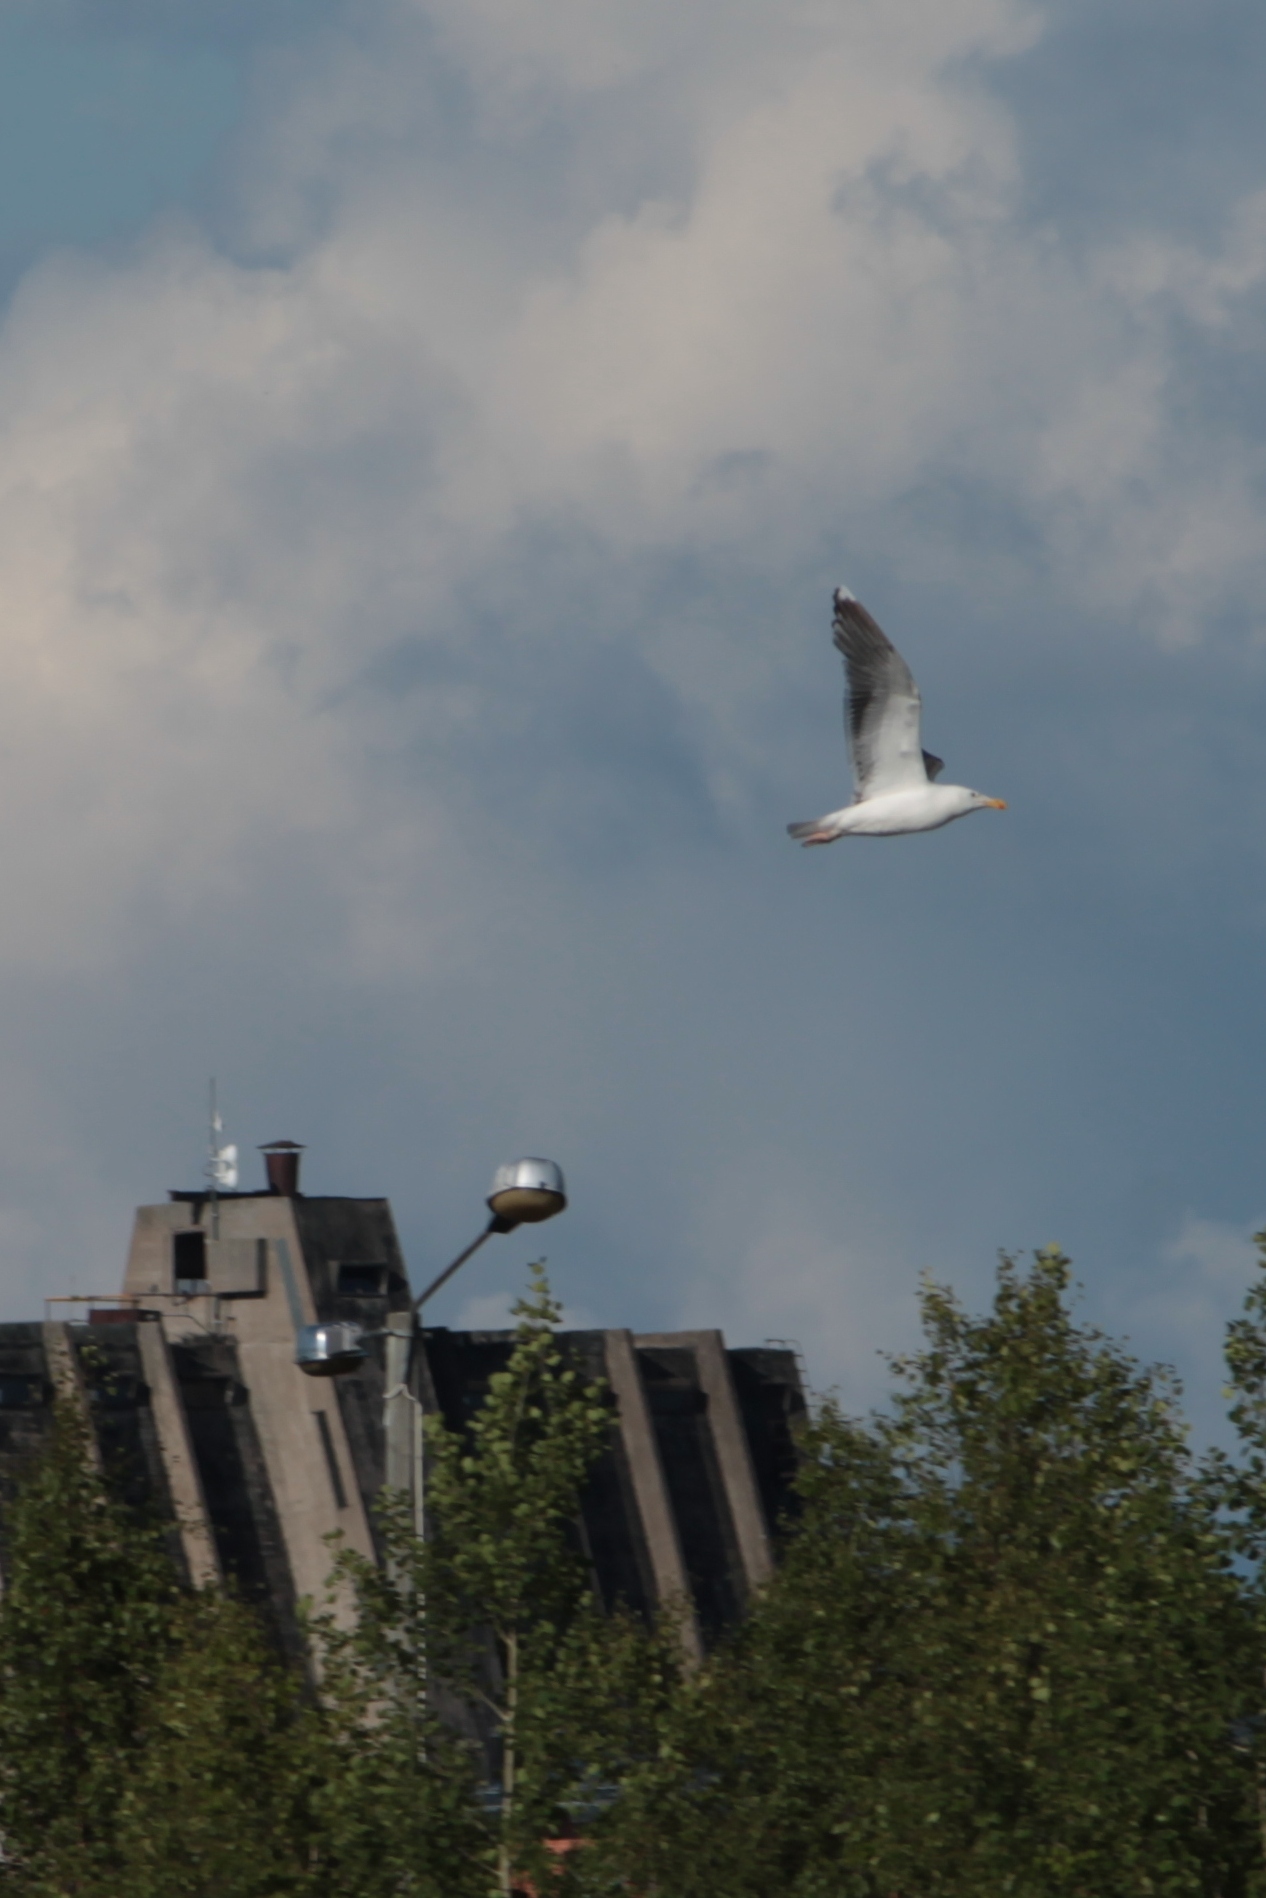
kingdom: Animalia
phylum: Chordata
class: Aves
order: Charadriiformes
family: Laridae
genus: Larus
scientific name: Larus marinus
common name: Great black-backed gull
